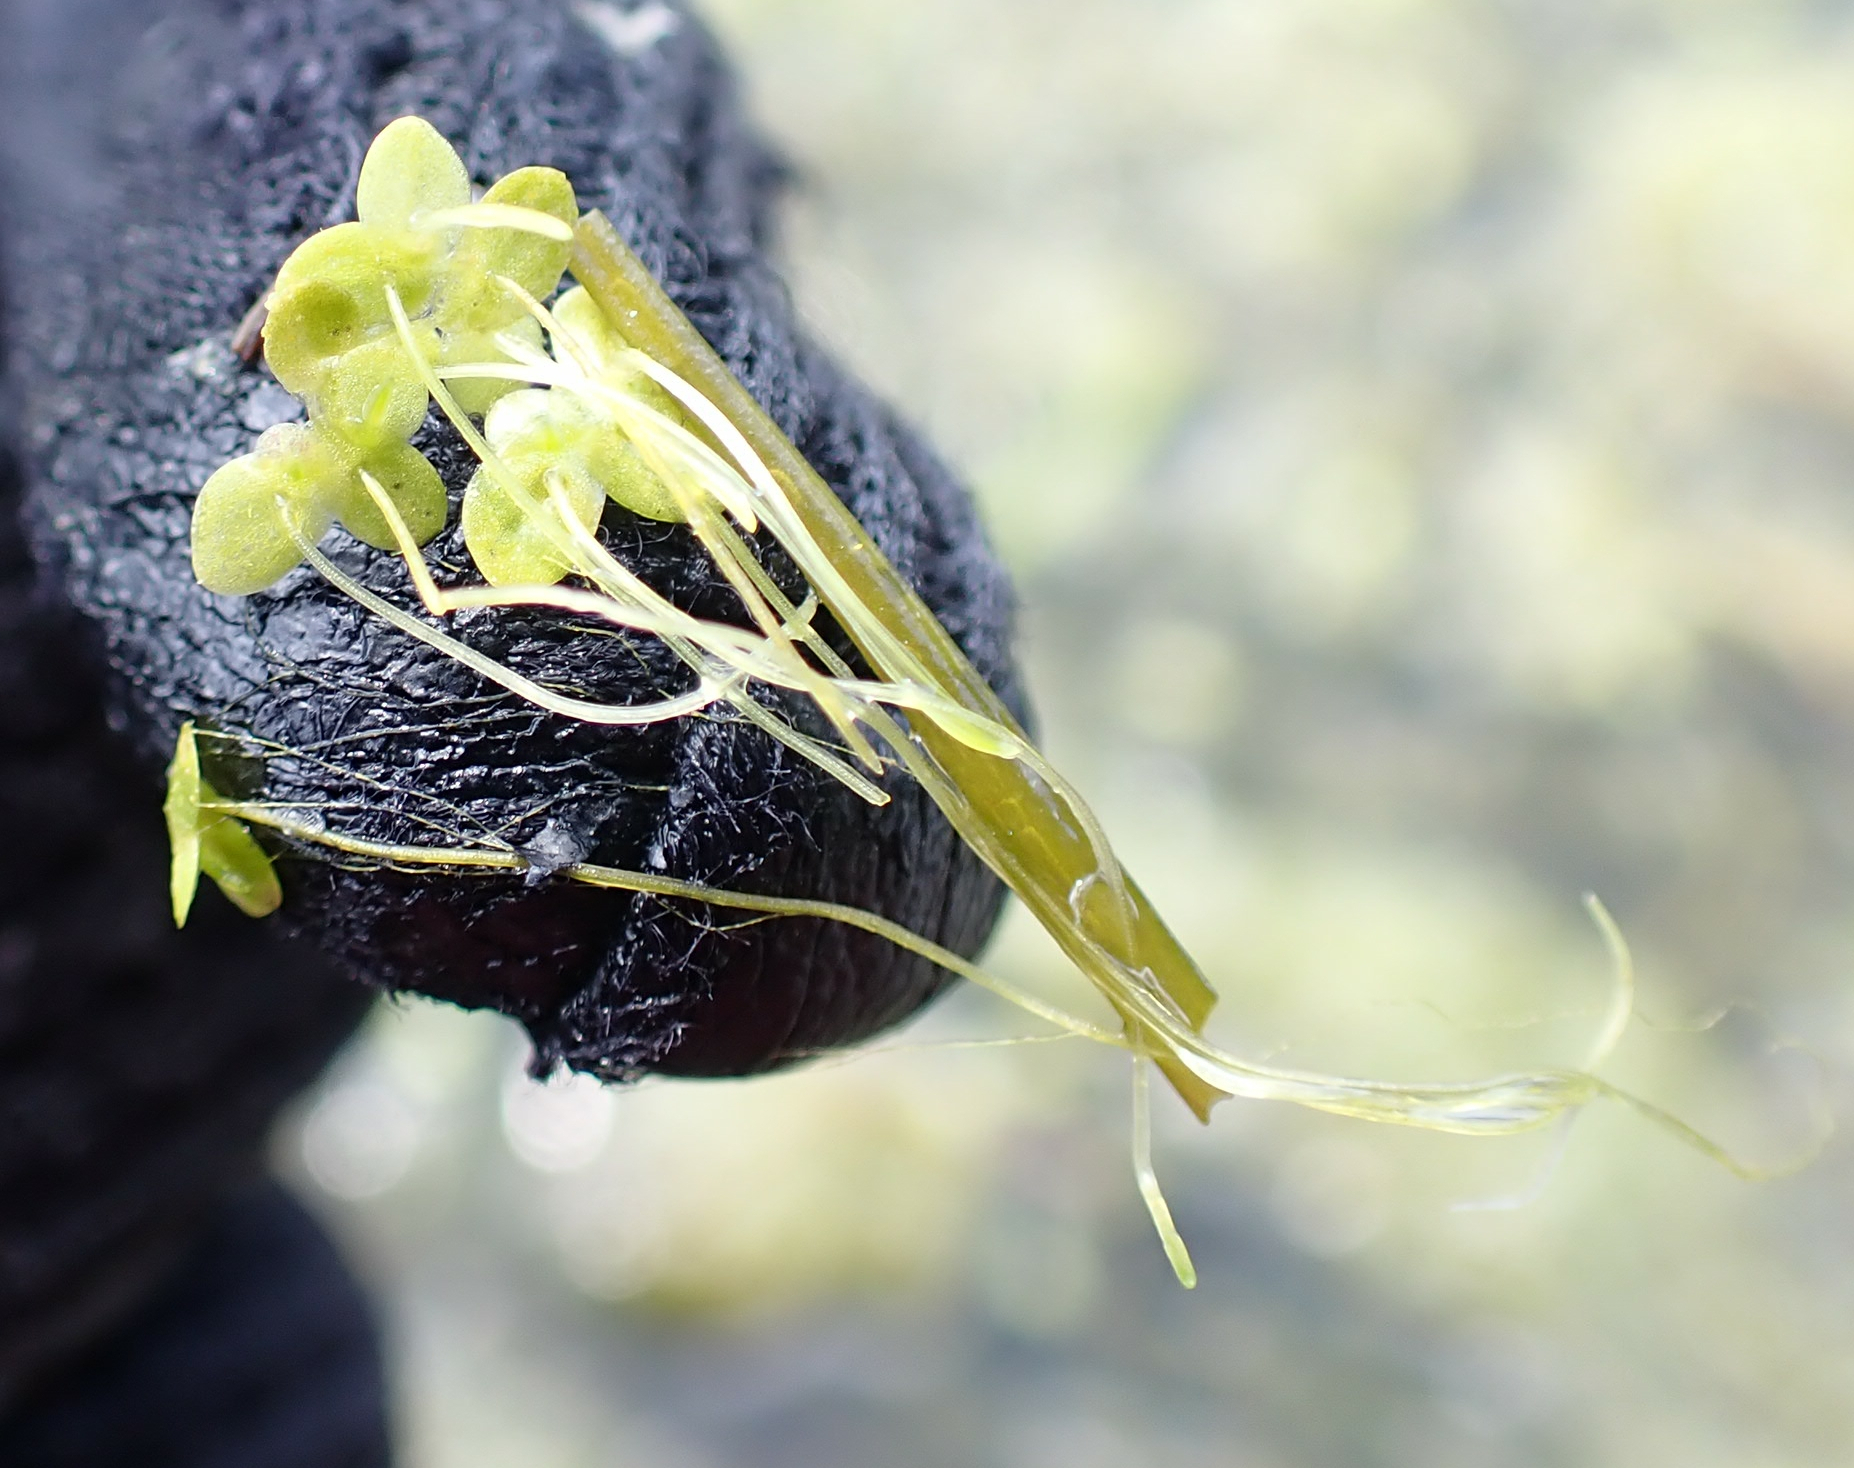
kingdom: Plantae
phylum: Tracheophyta
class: Liliopsida
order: Alismatales
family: Araceae
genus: Lemna
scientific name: Lemna minor
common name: Common duckweed
